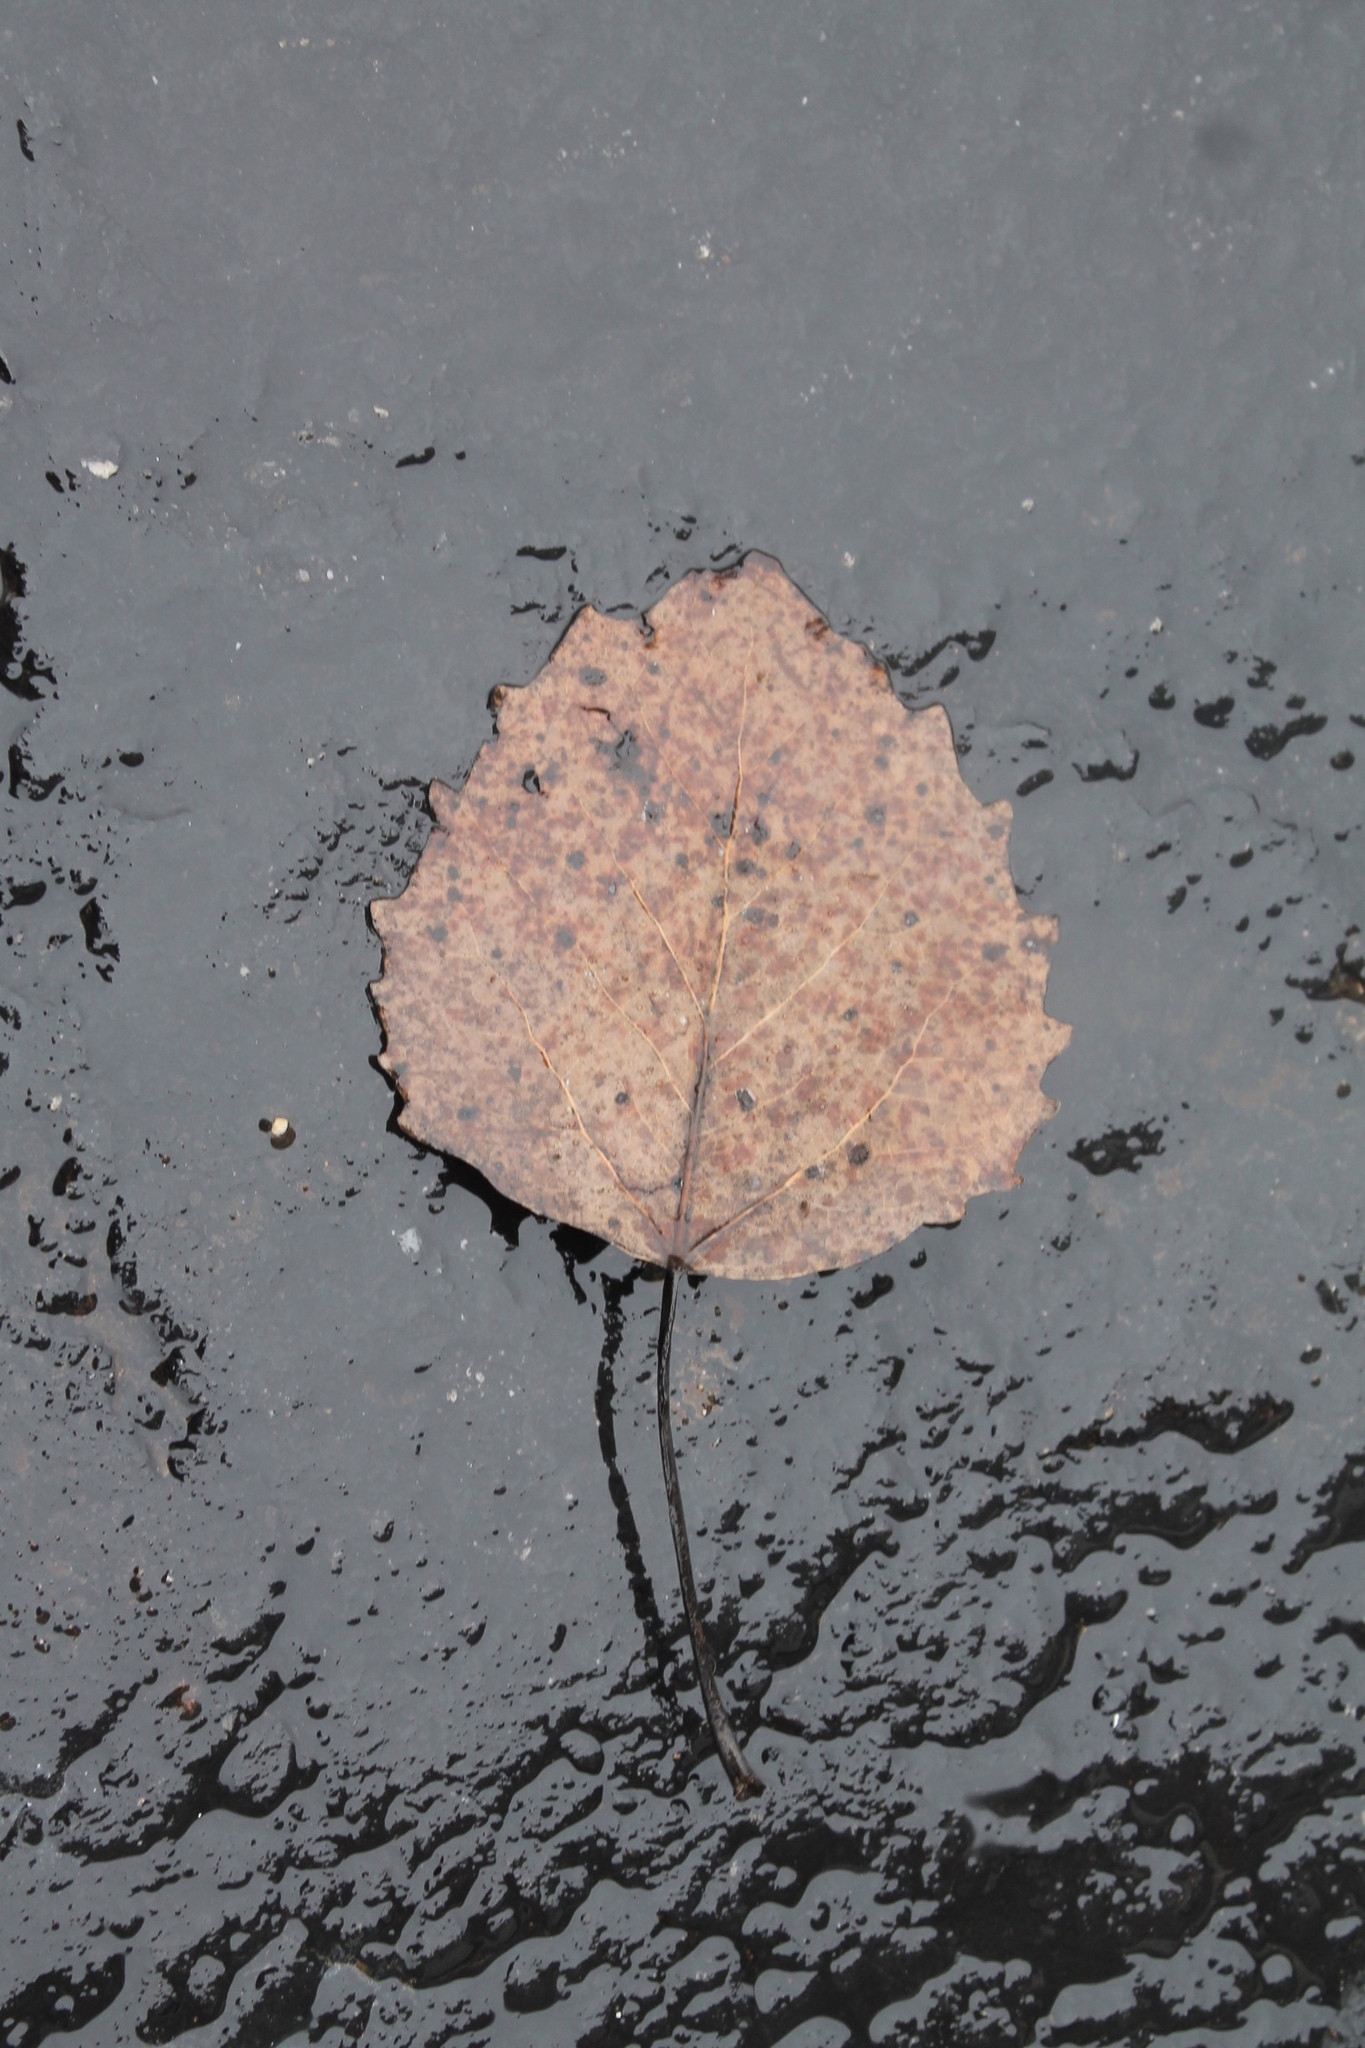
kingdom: Plantae
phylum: Tracheophyta
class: Magnoliopsida
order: Malpighiales
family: Salicaceae
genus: Populus
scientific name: Populus grandidentata
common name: Bigtooth aspen
